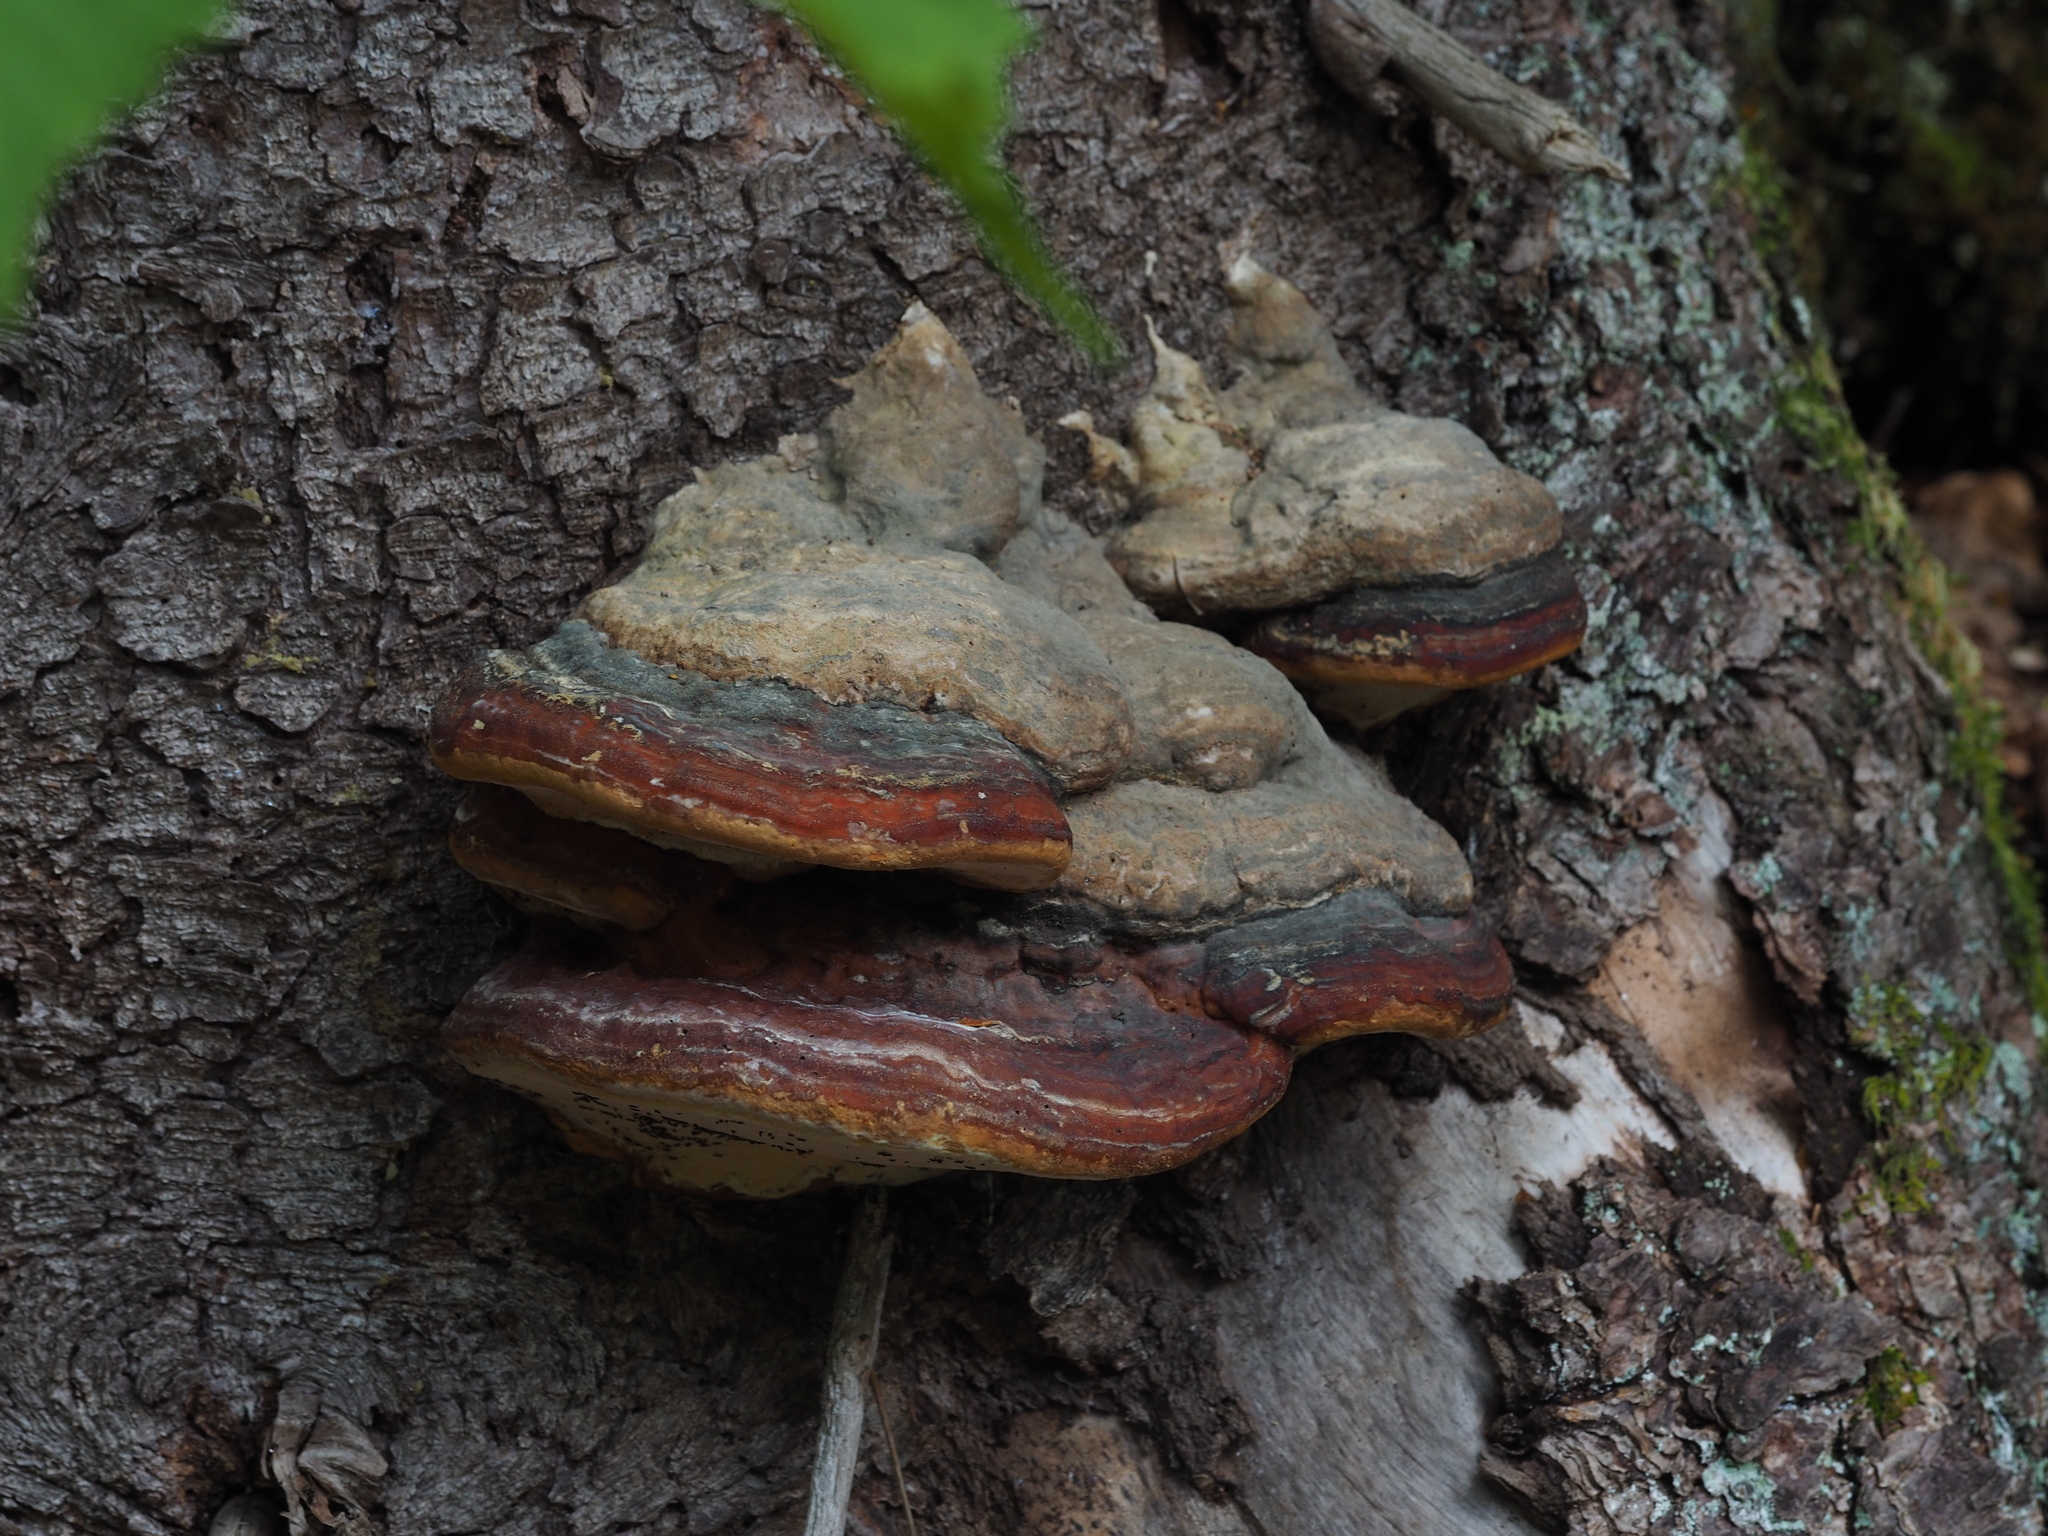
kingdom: Fungi
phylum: Basidiomycota
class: Agaricomycetes
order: Polyporales
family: Fomitopsidaceae
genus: Fomitopsis
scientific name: Fomitopsis pinicola
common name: Red-belted bracket
